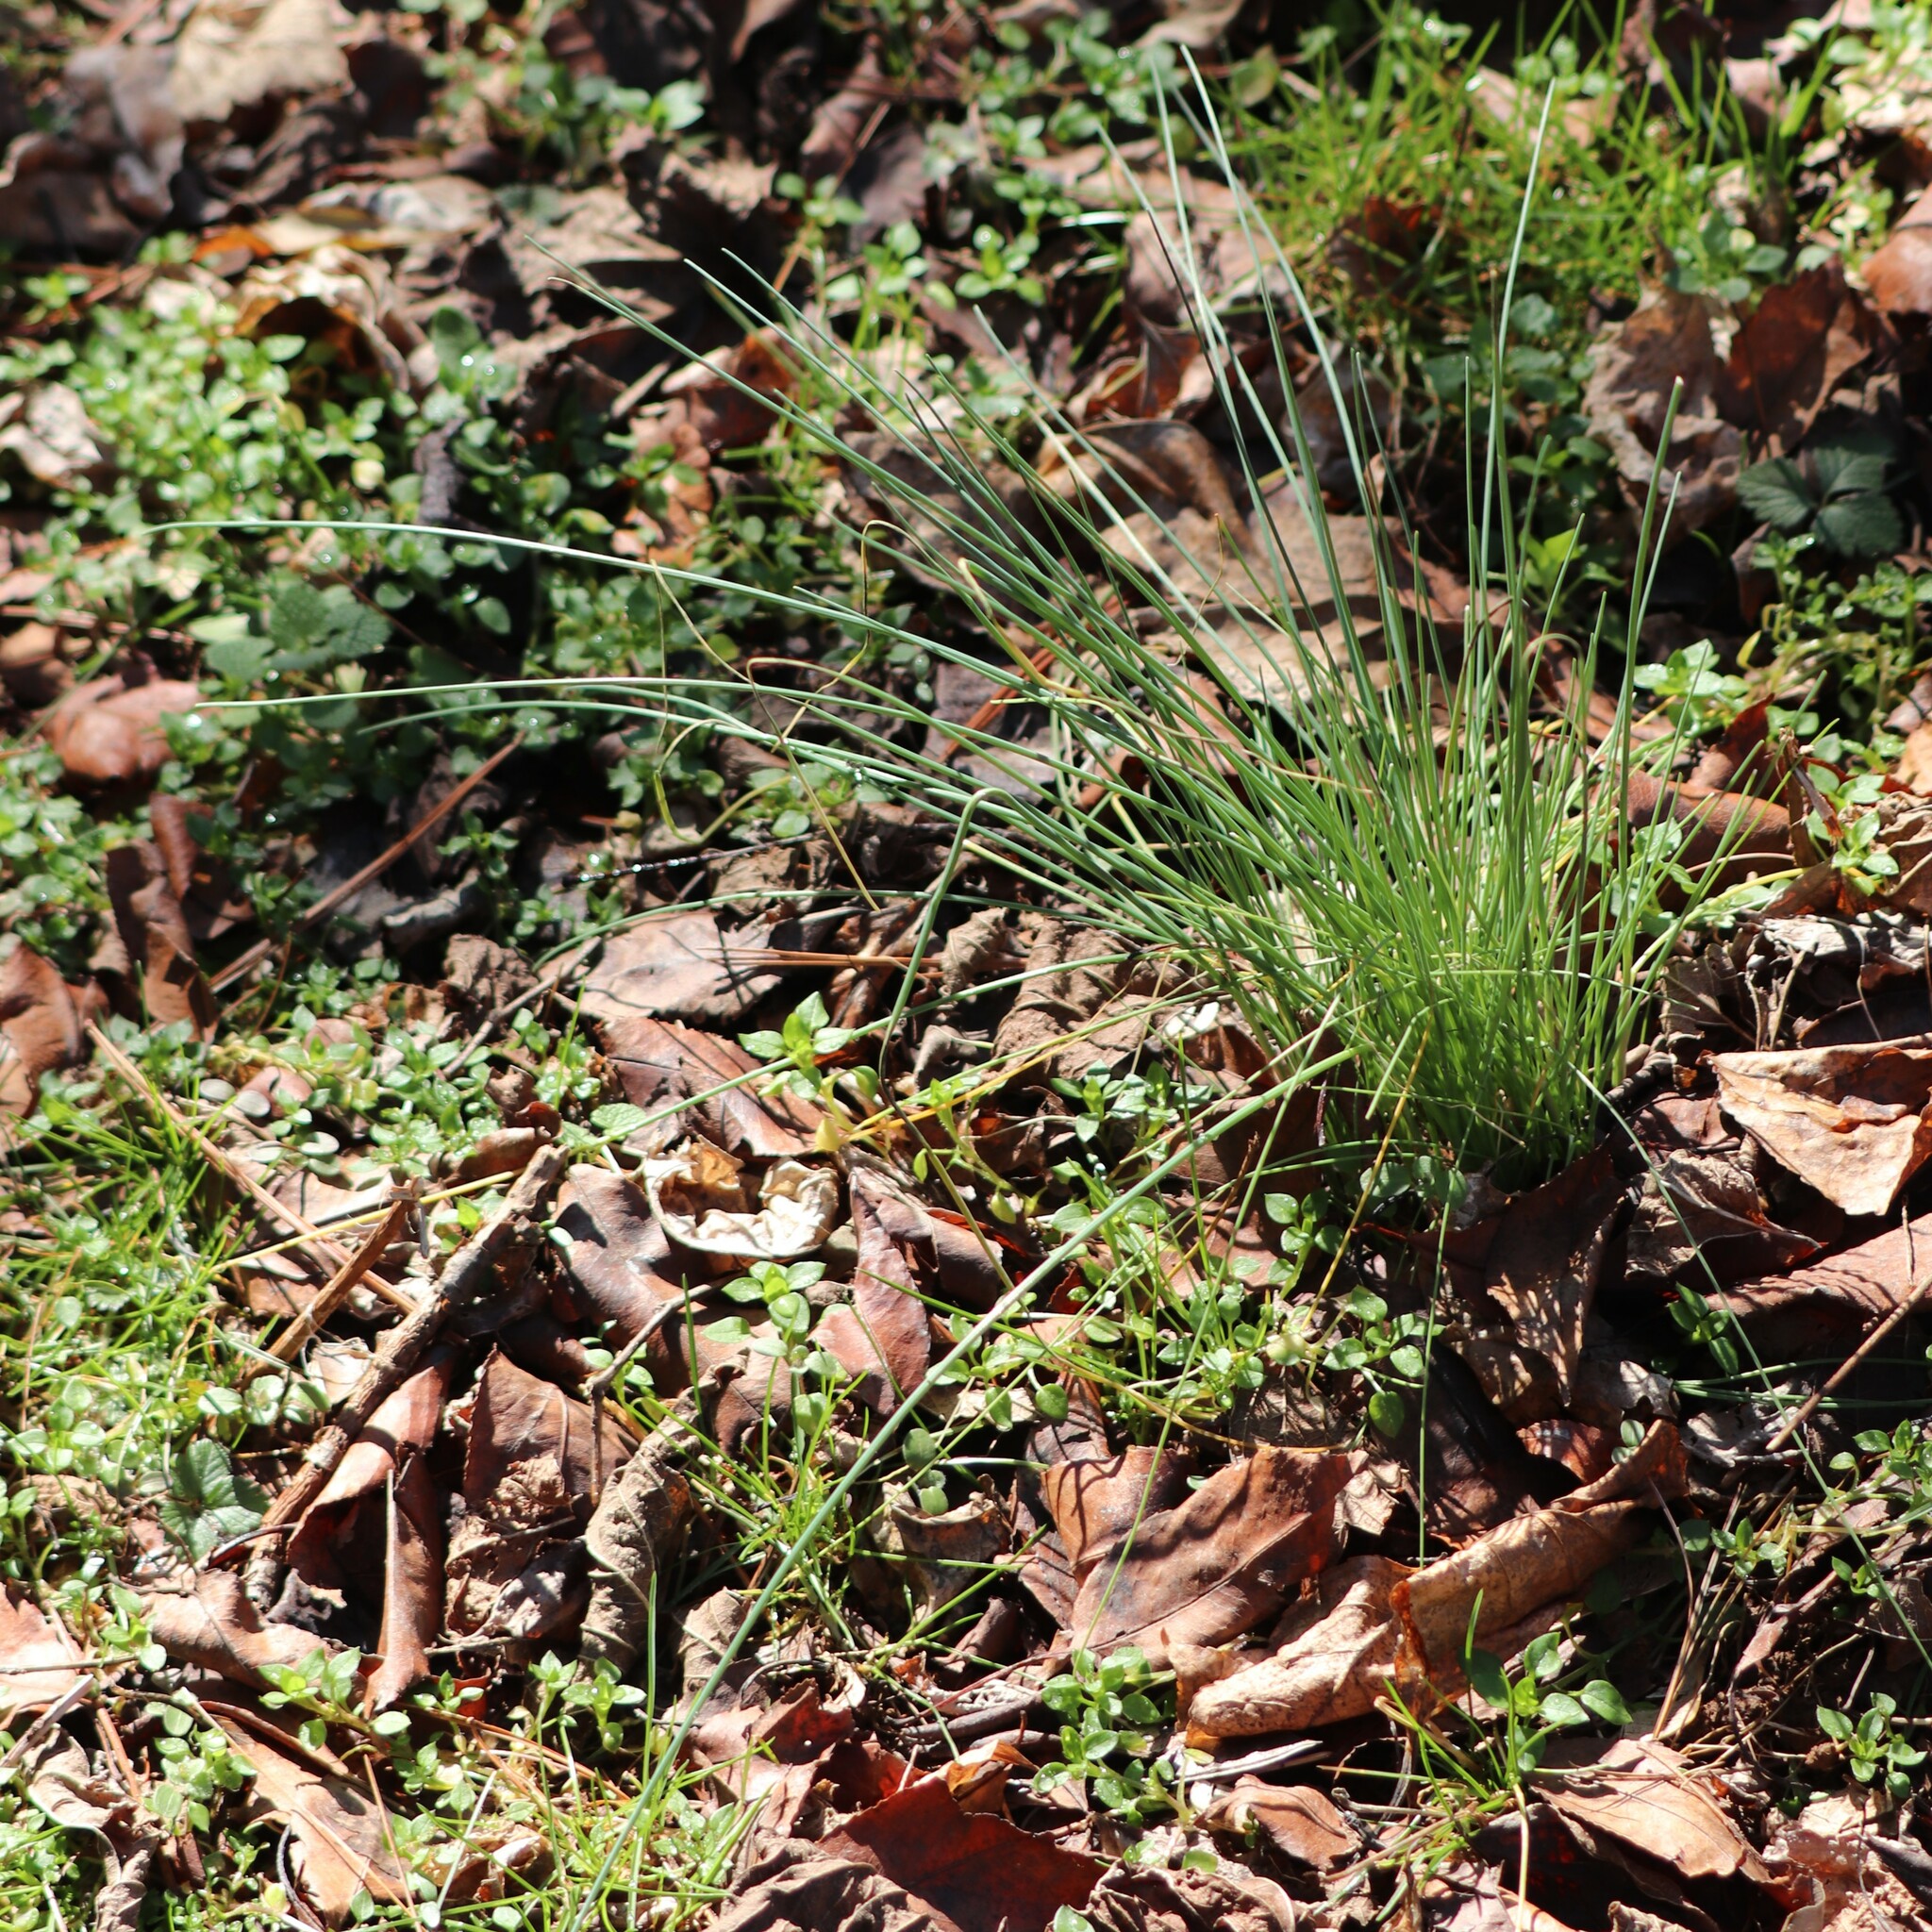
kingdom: Plantae
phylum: Tracheophyta
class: Liliopsida
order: Asparagales
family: Amaryllidaceae
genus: Allium
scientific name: Allium vineale
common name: Crow garlic
